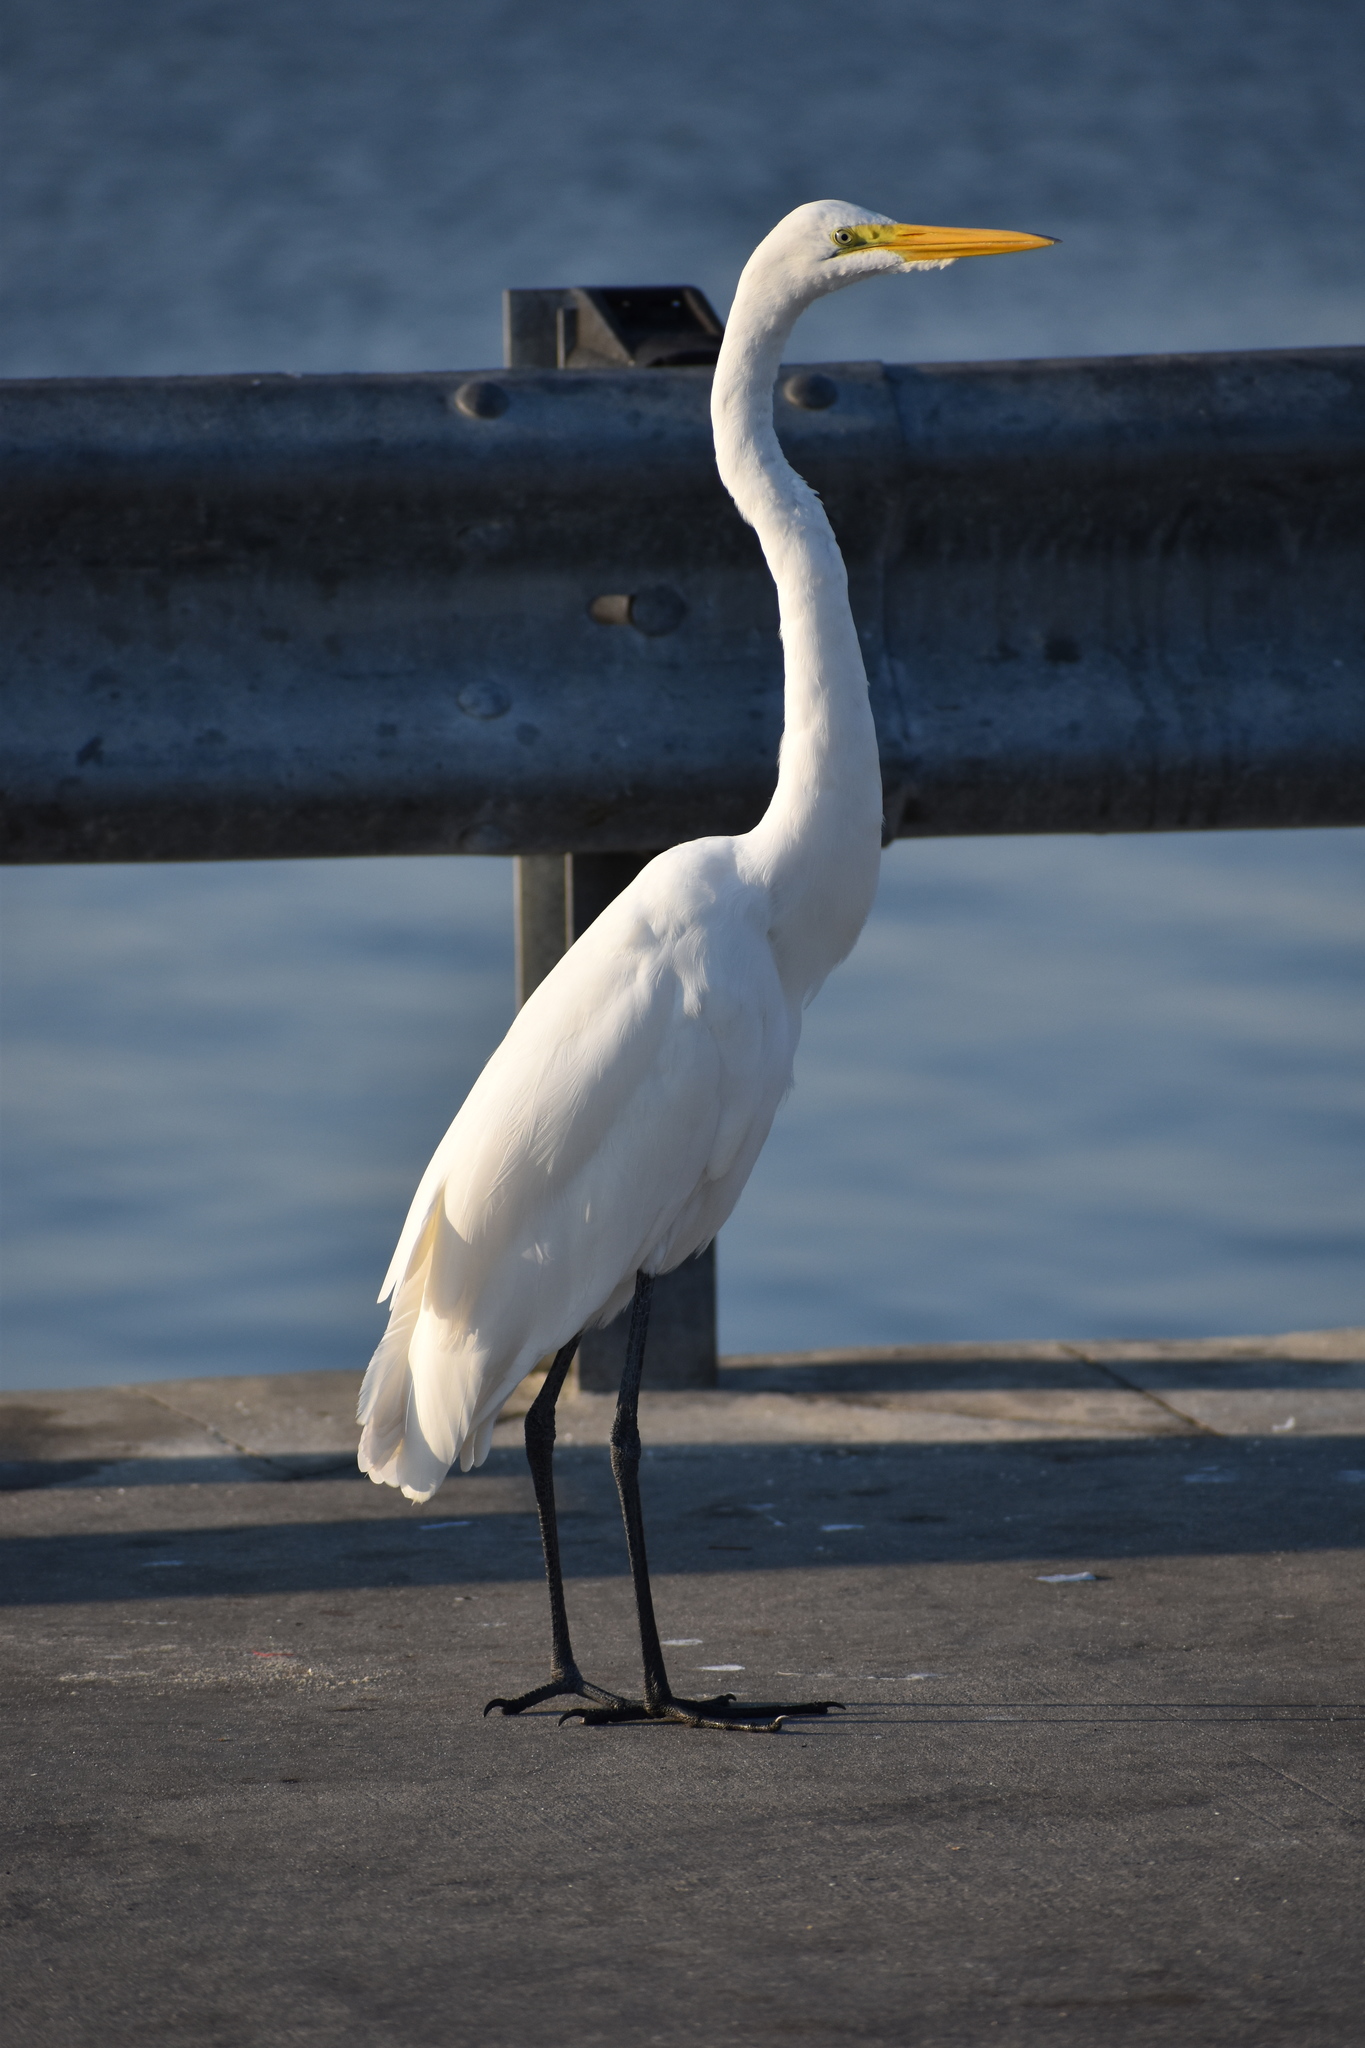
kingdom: Animalia
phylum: Chordata
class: Aves
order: Pelecaniformes
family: Ardeidae
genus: Ardea
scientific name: Ardea alba
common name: Great egret
